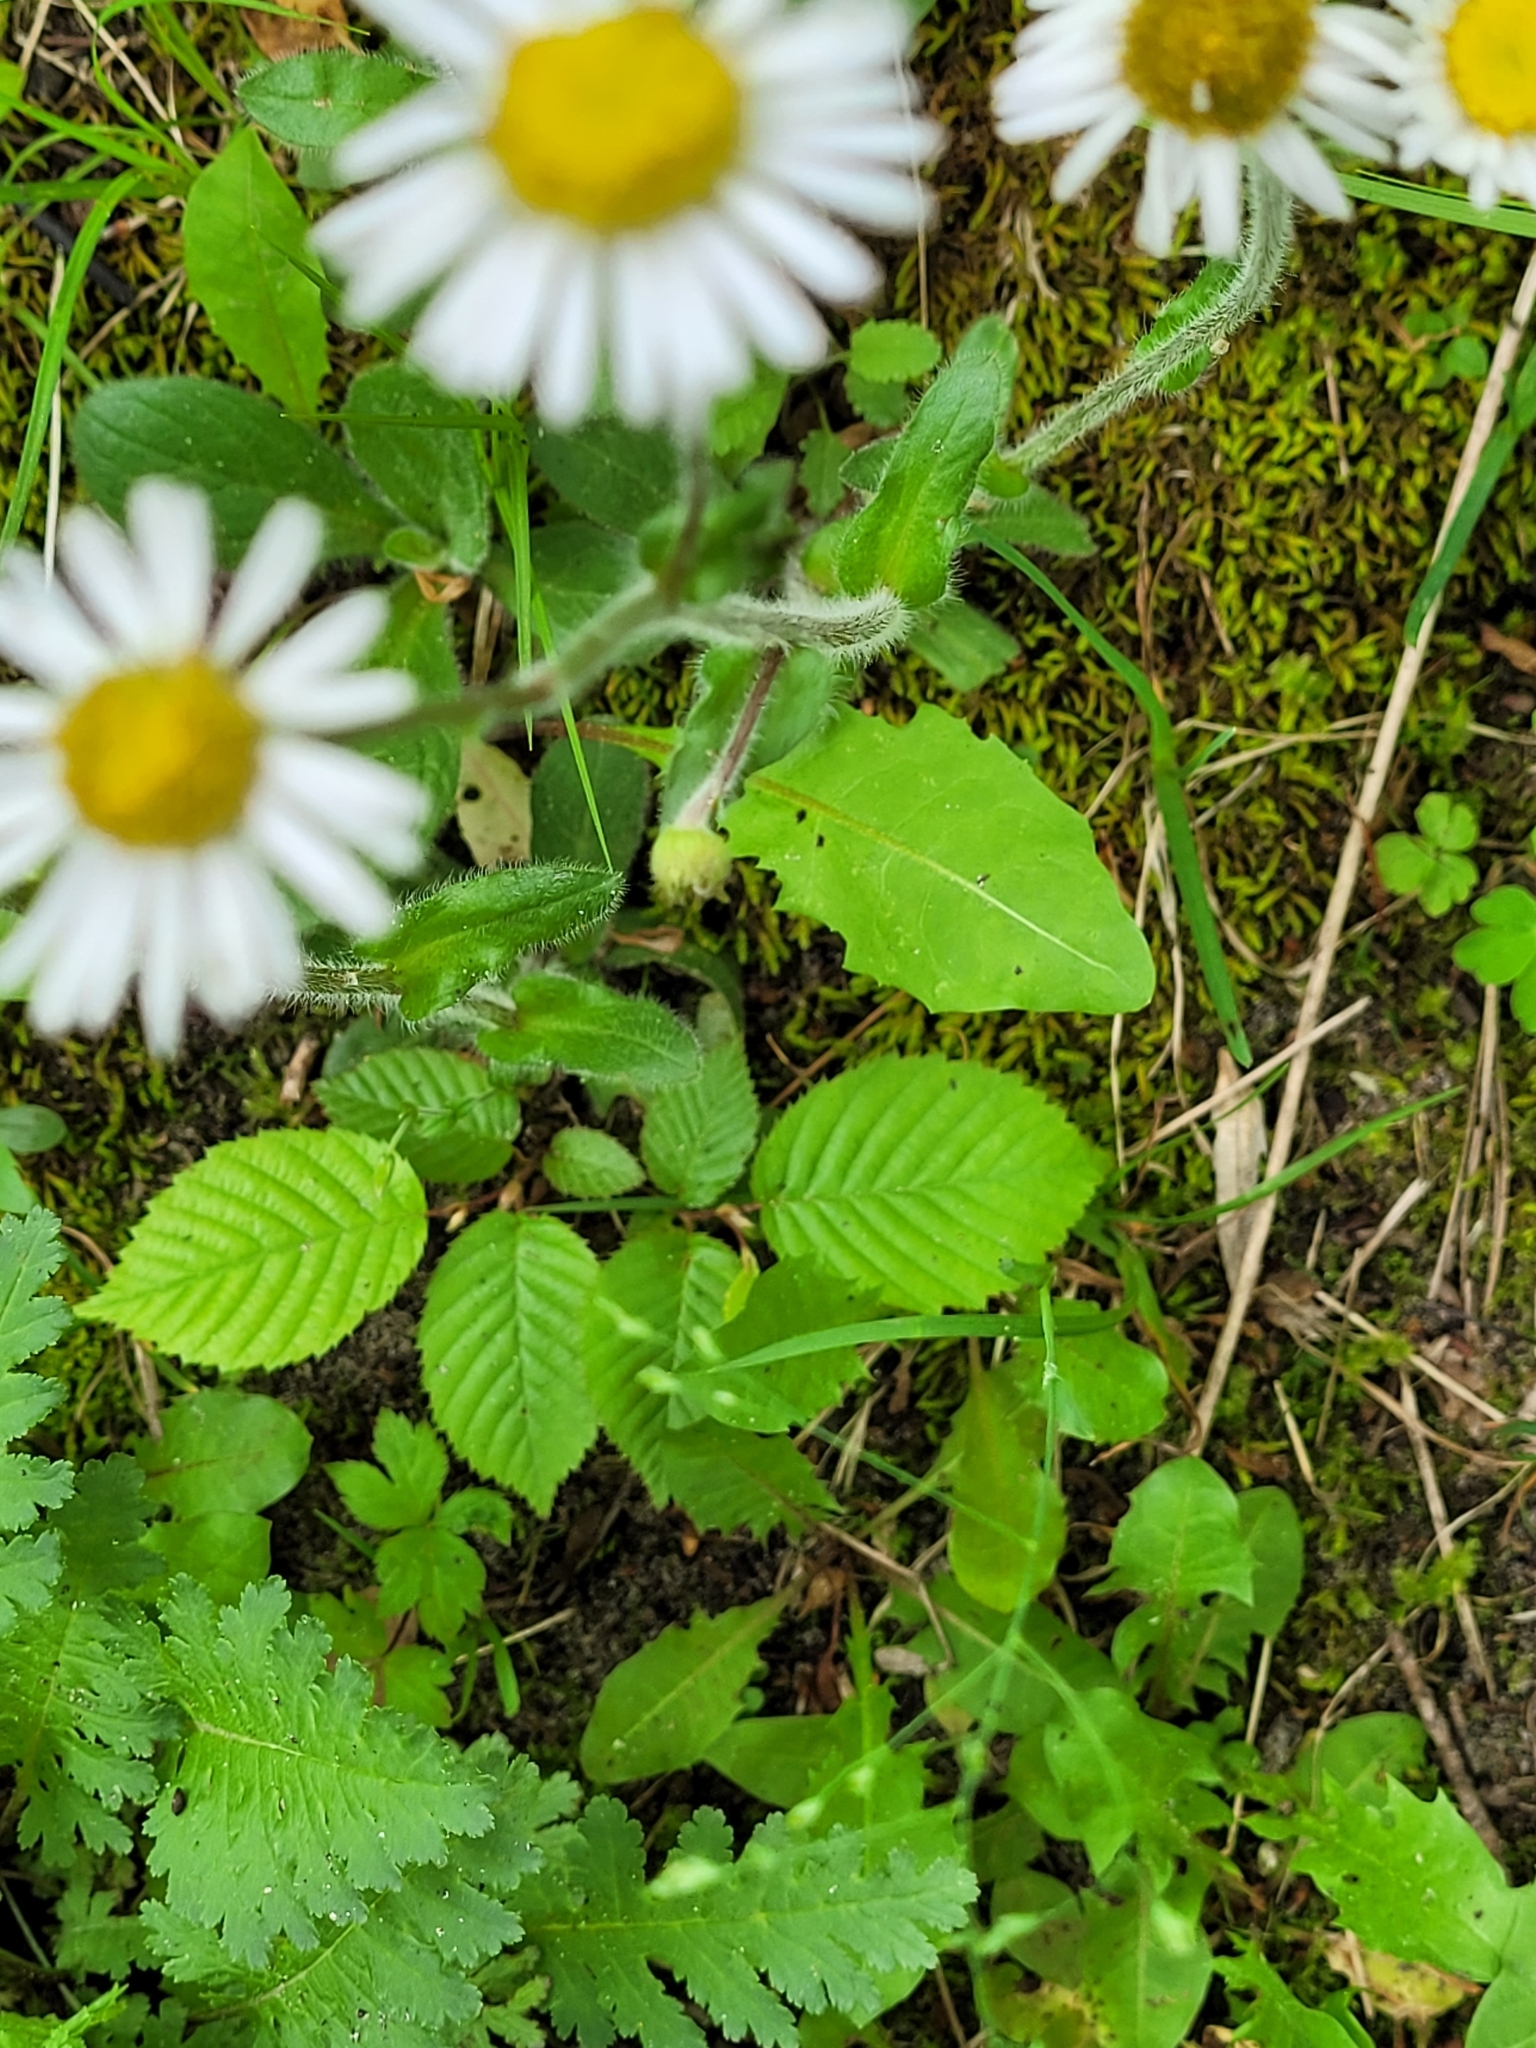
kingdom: Plantae
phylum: Tracheophyta
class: Magnoliopsida
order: Asterales
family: Asteraceae
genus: Erigeron
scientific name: Erigeron pulchellus
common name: Hairy fleabane
